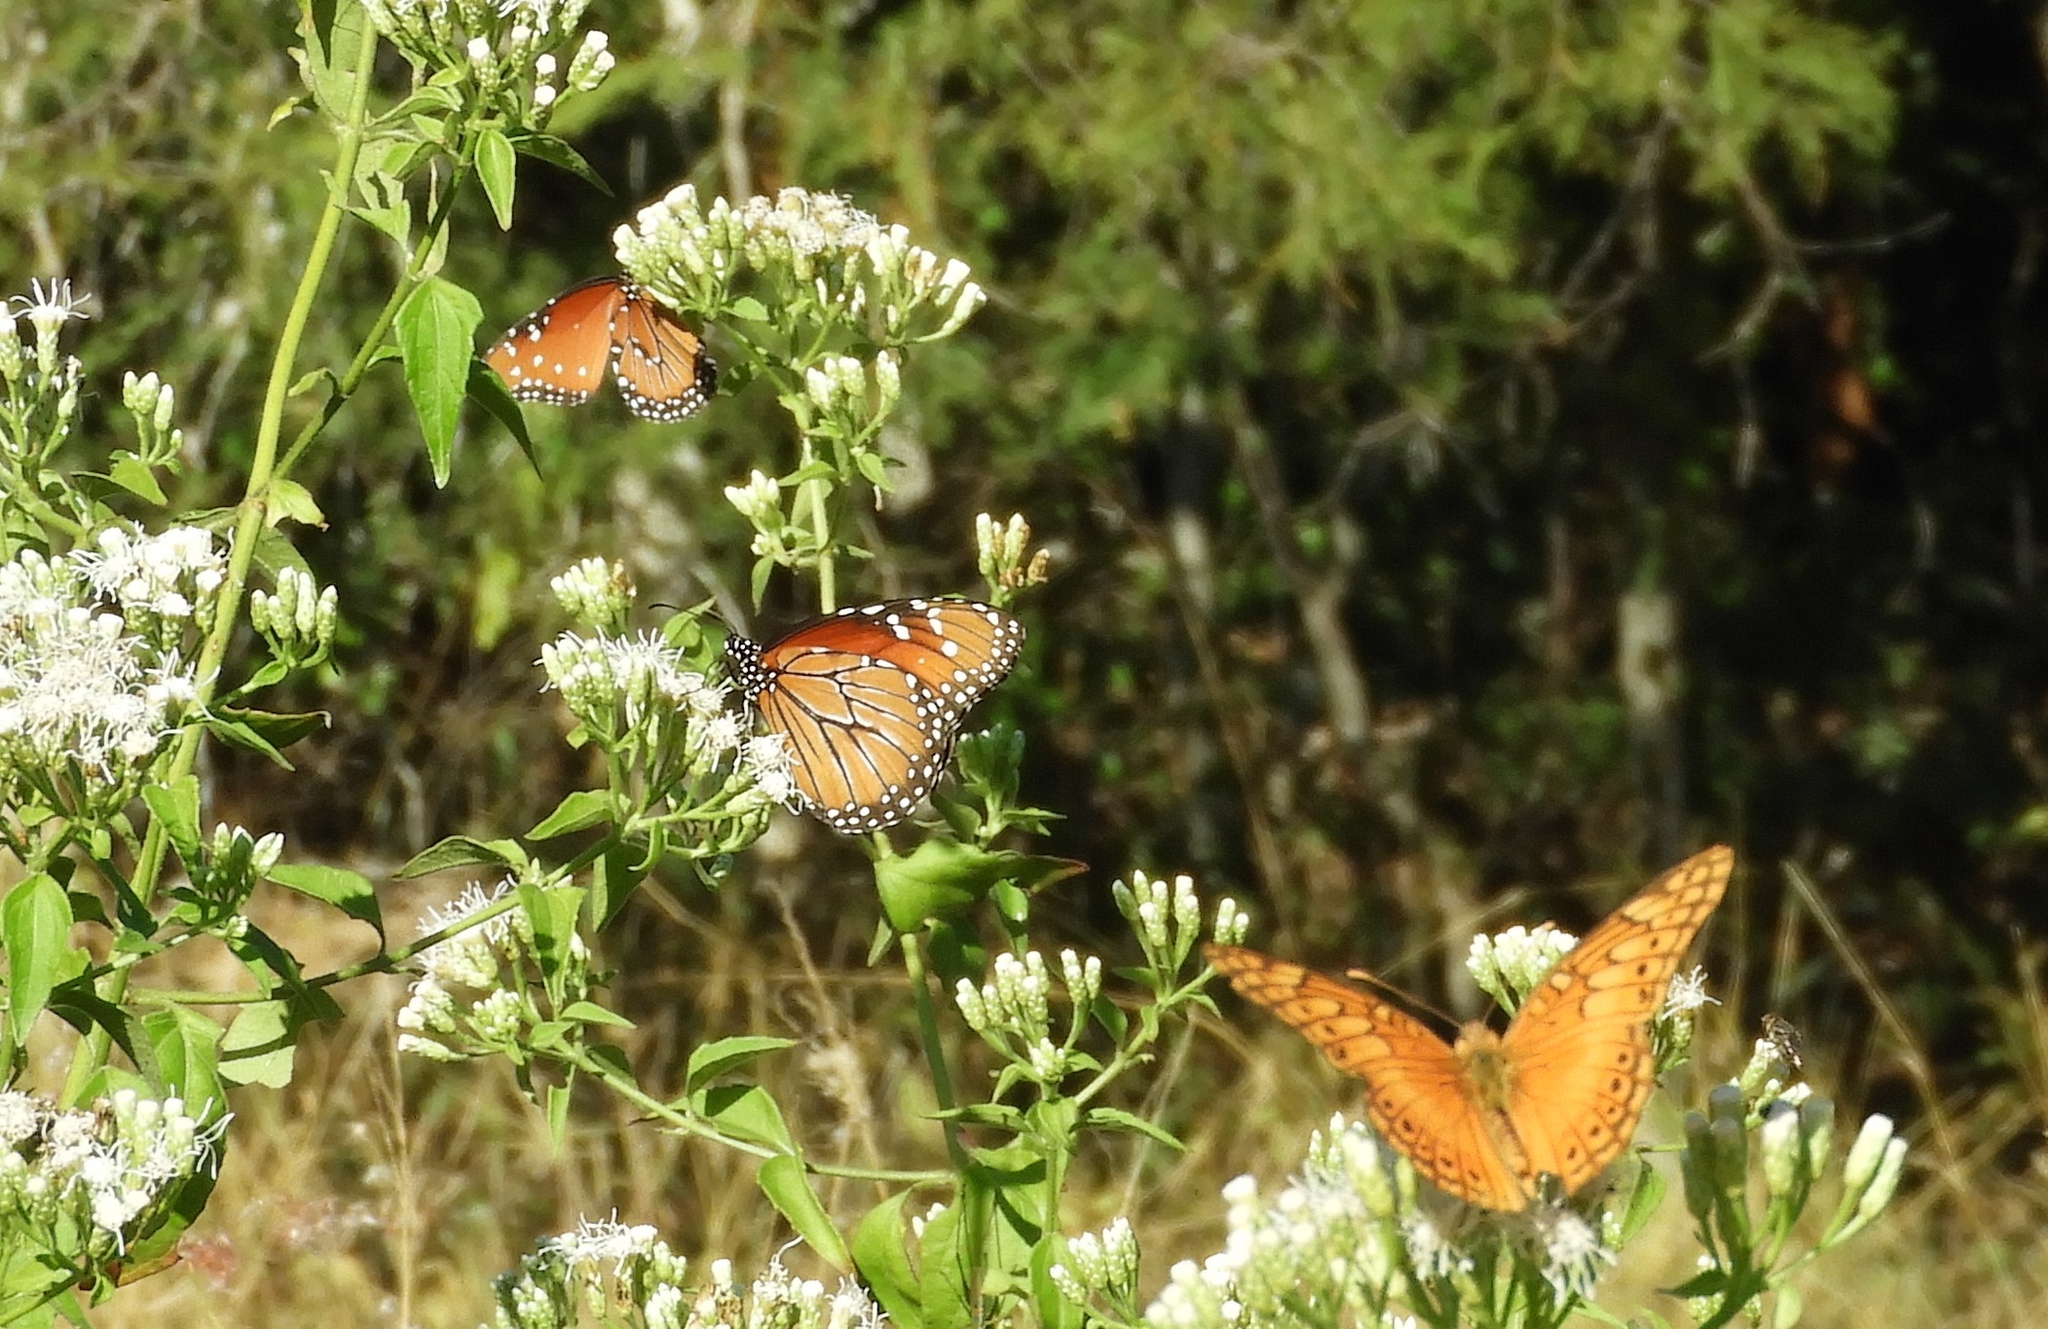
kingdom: Animalia
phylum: Arthropoda
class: Insecta
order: Lepidoptera
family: Nymphalidae
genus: Danaus
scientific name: Danaus gilippus
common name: Queen
